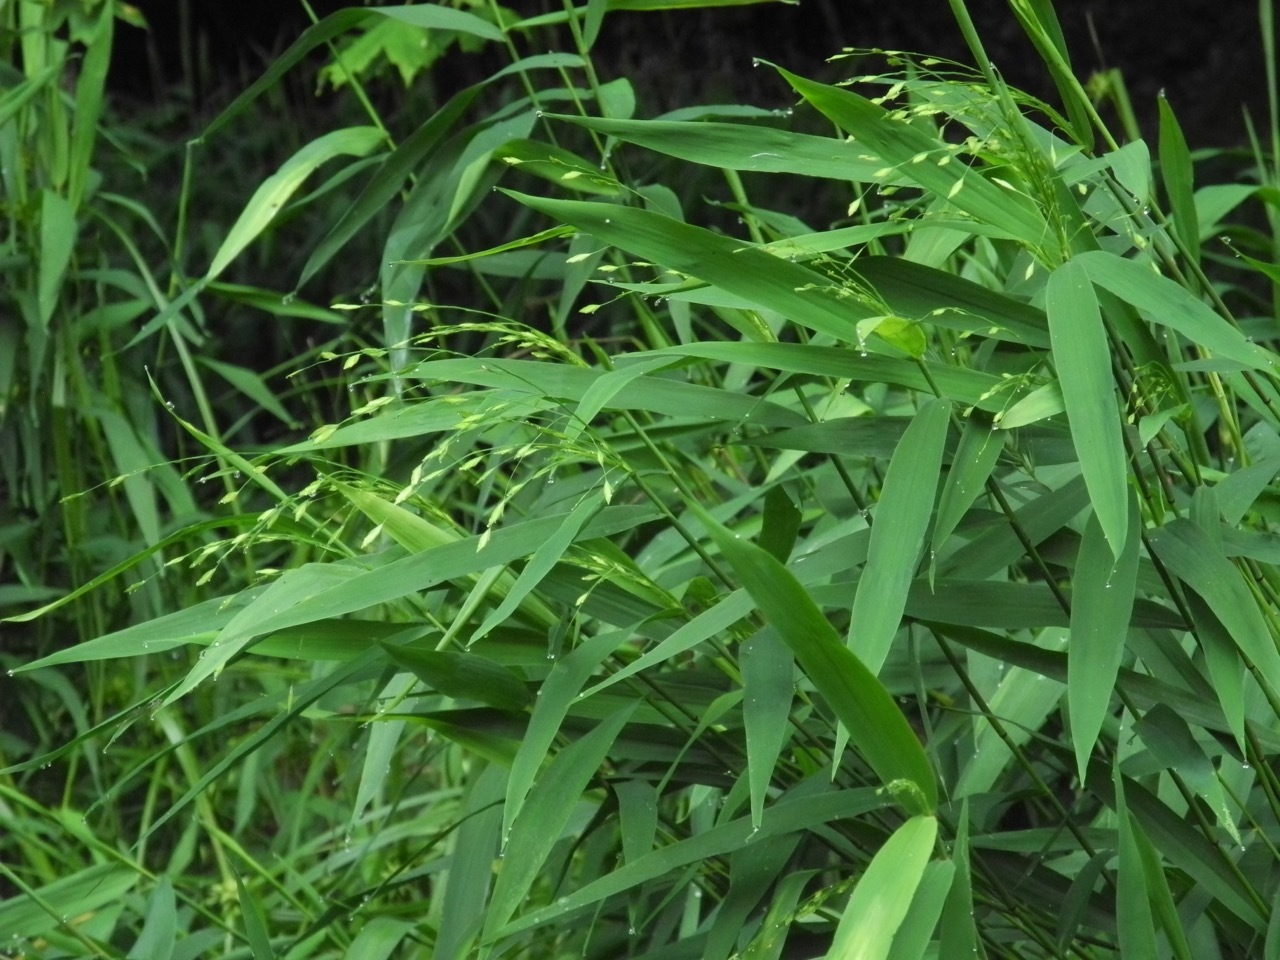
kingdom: Plantae
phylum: Tracheophyta
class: Liliopsida
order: Poales
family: Poaceae
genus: Chasmanthium
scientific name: Chasmanthium latifolium
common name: Broad-leaved chasmanthium
